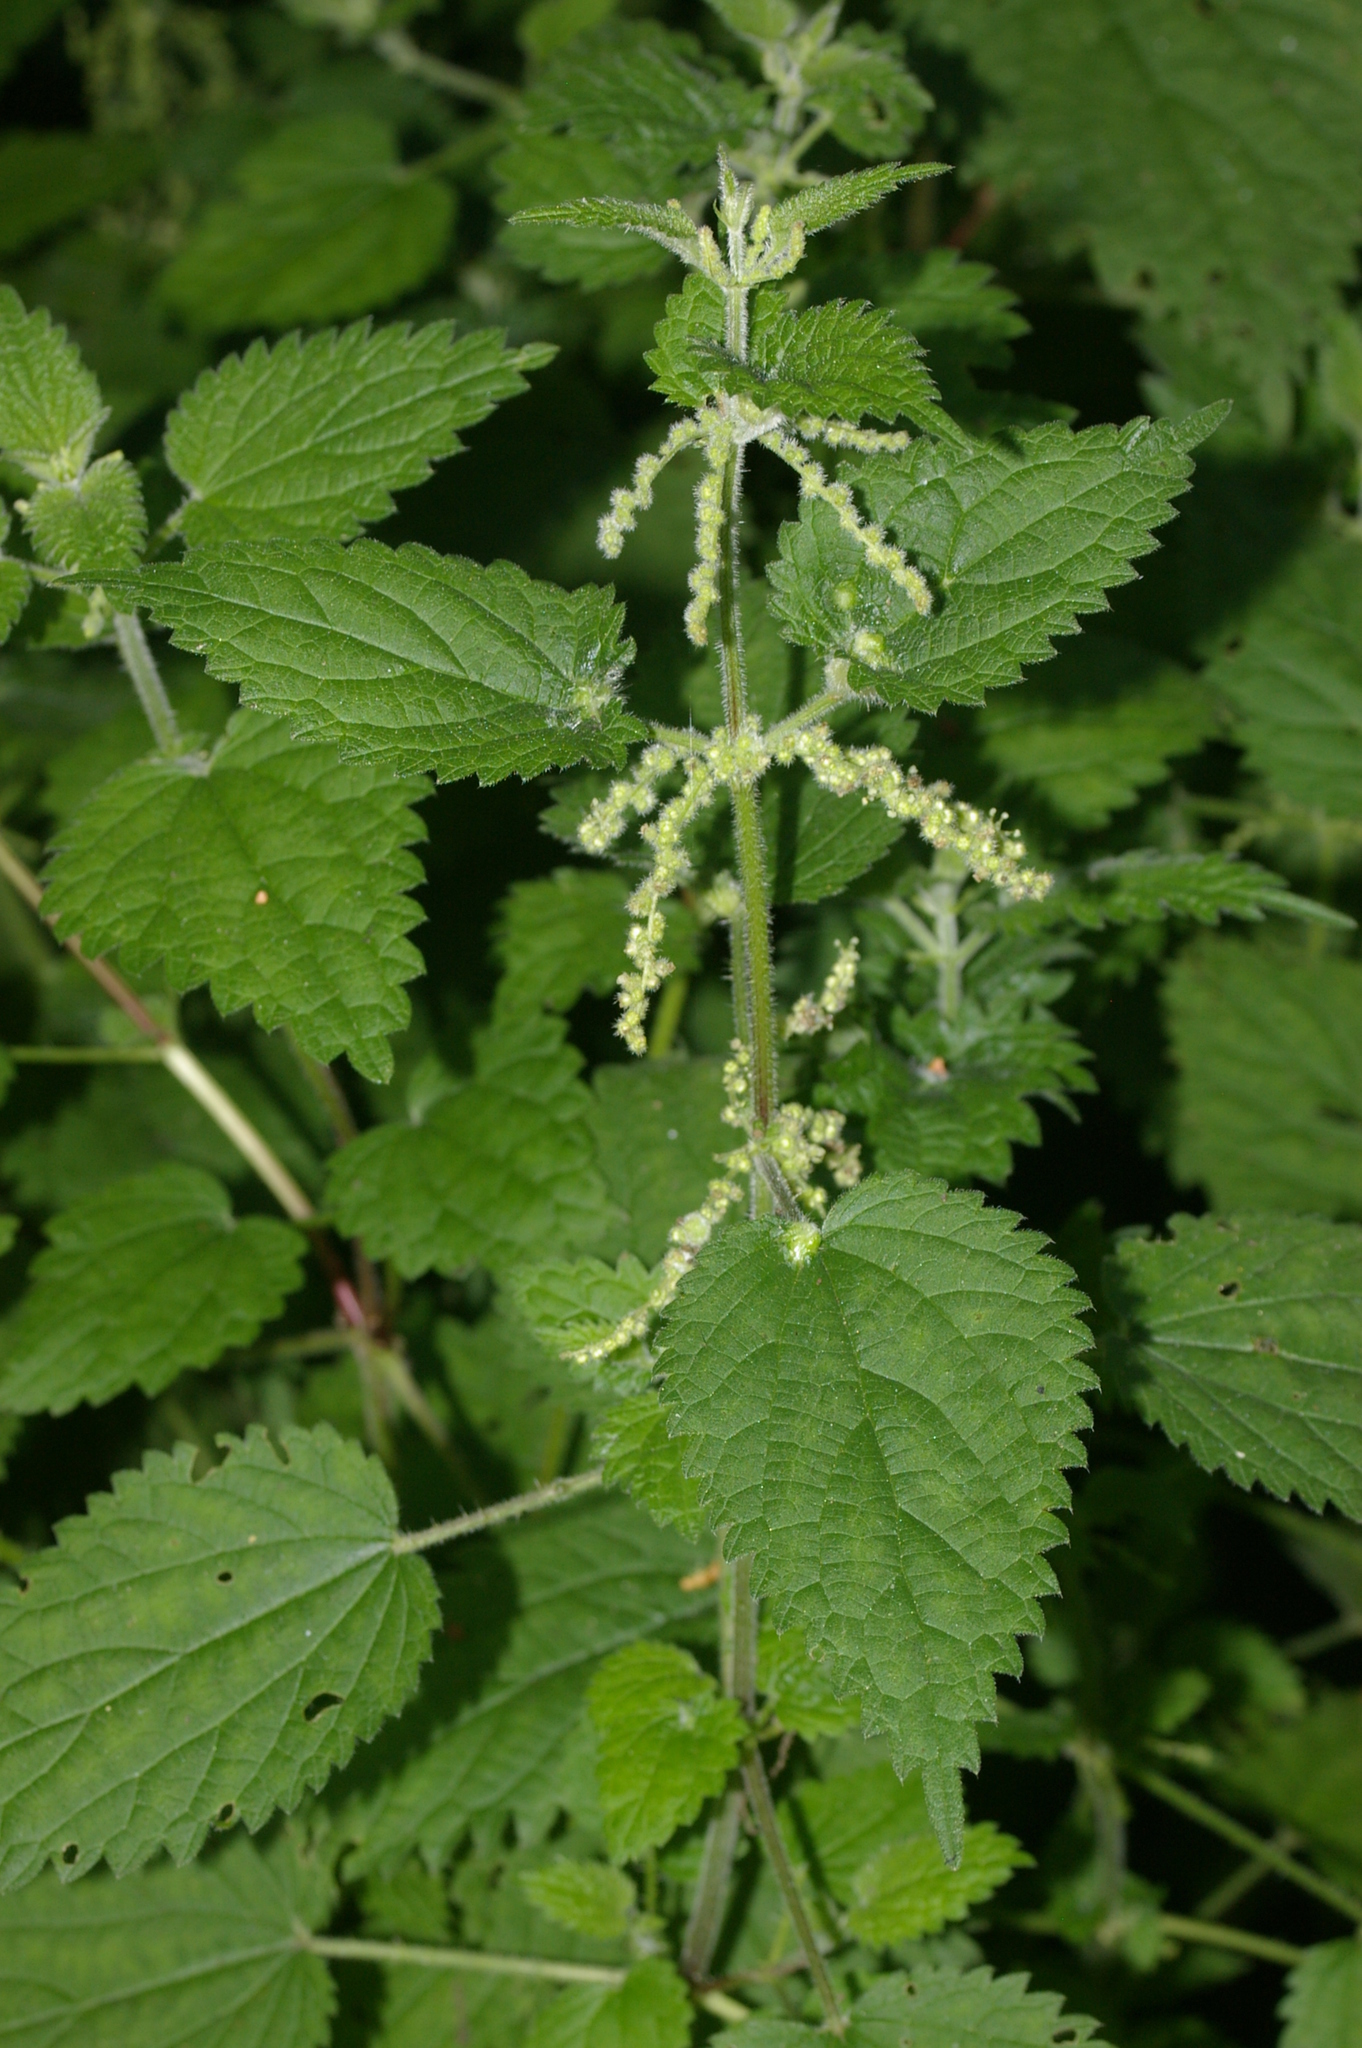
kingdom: Plantae
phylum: Tracheophyta
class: Magnoliopsida
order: Rosales
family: Urticaceae
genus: Urtica
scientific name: Urtica dioica
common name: Common nettle
